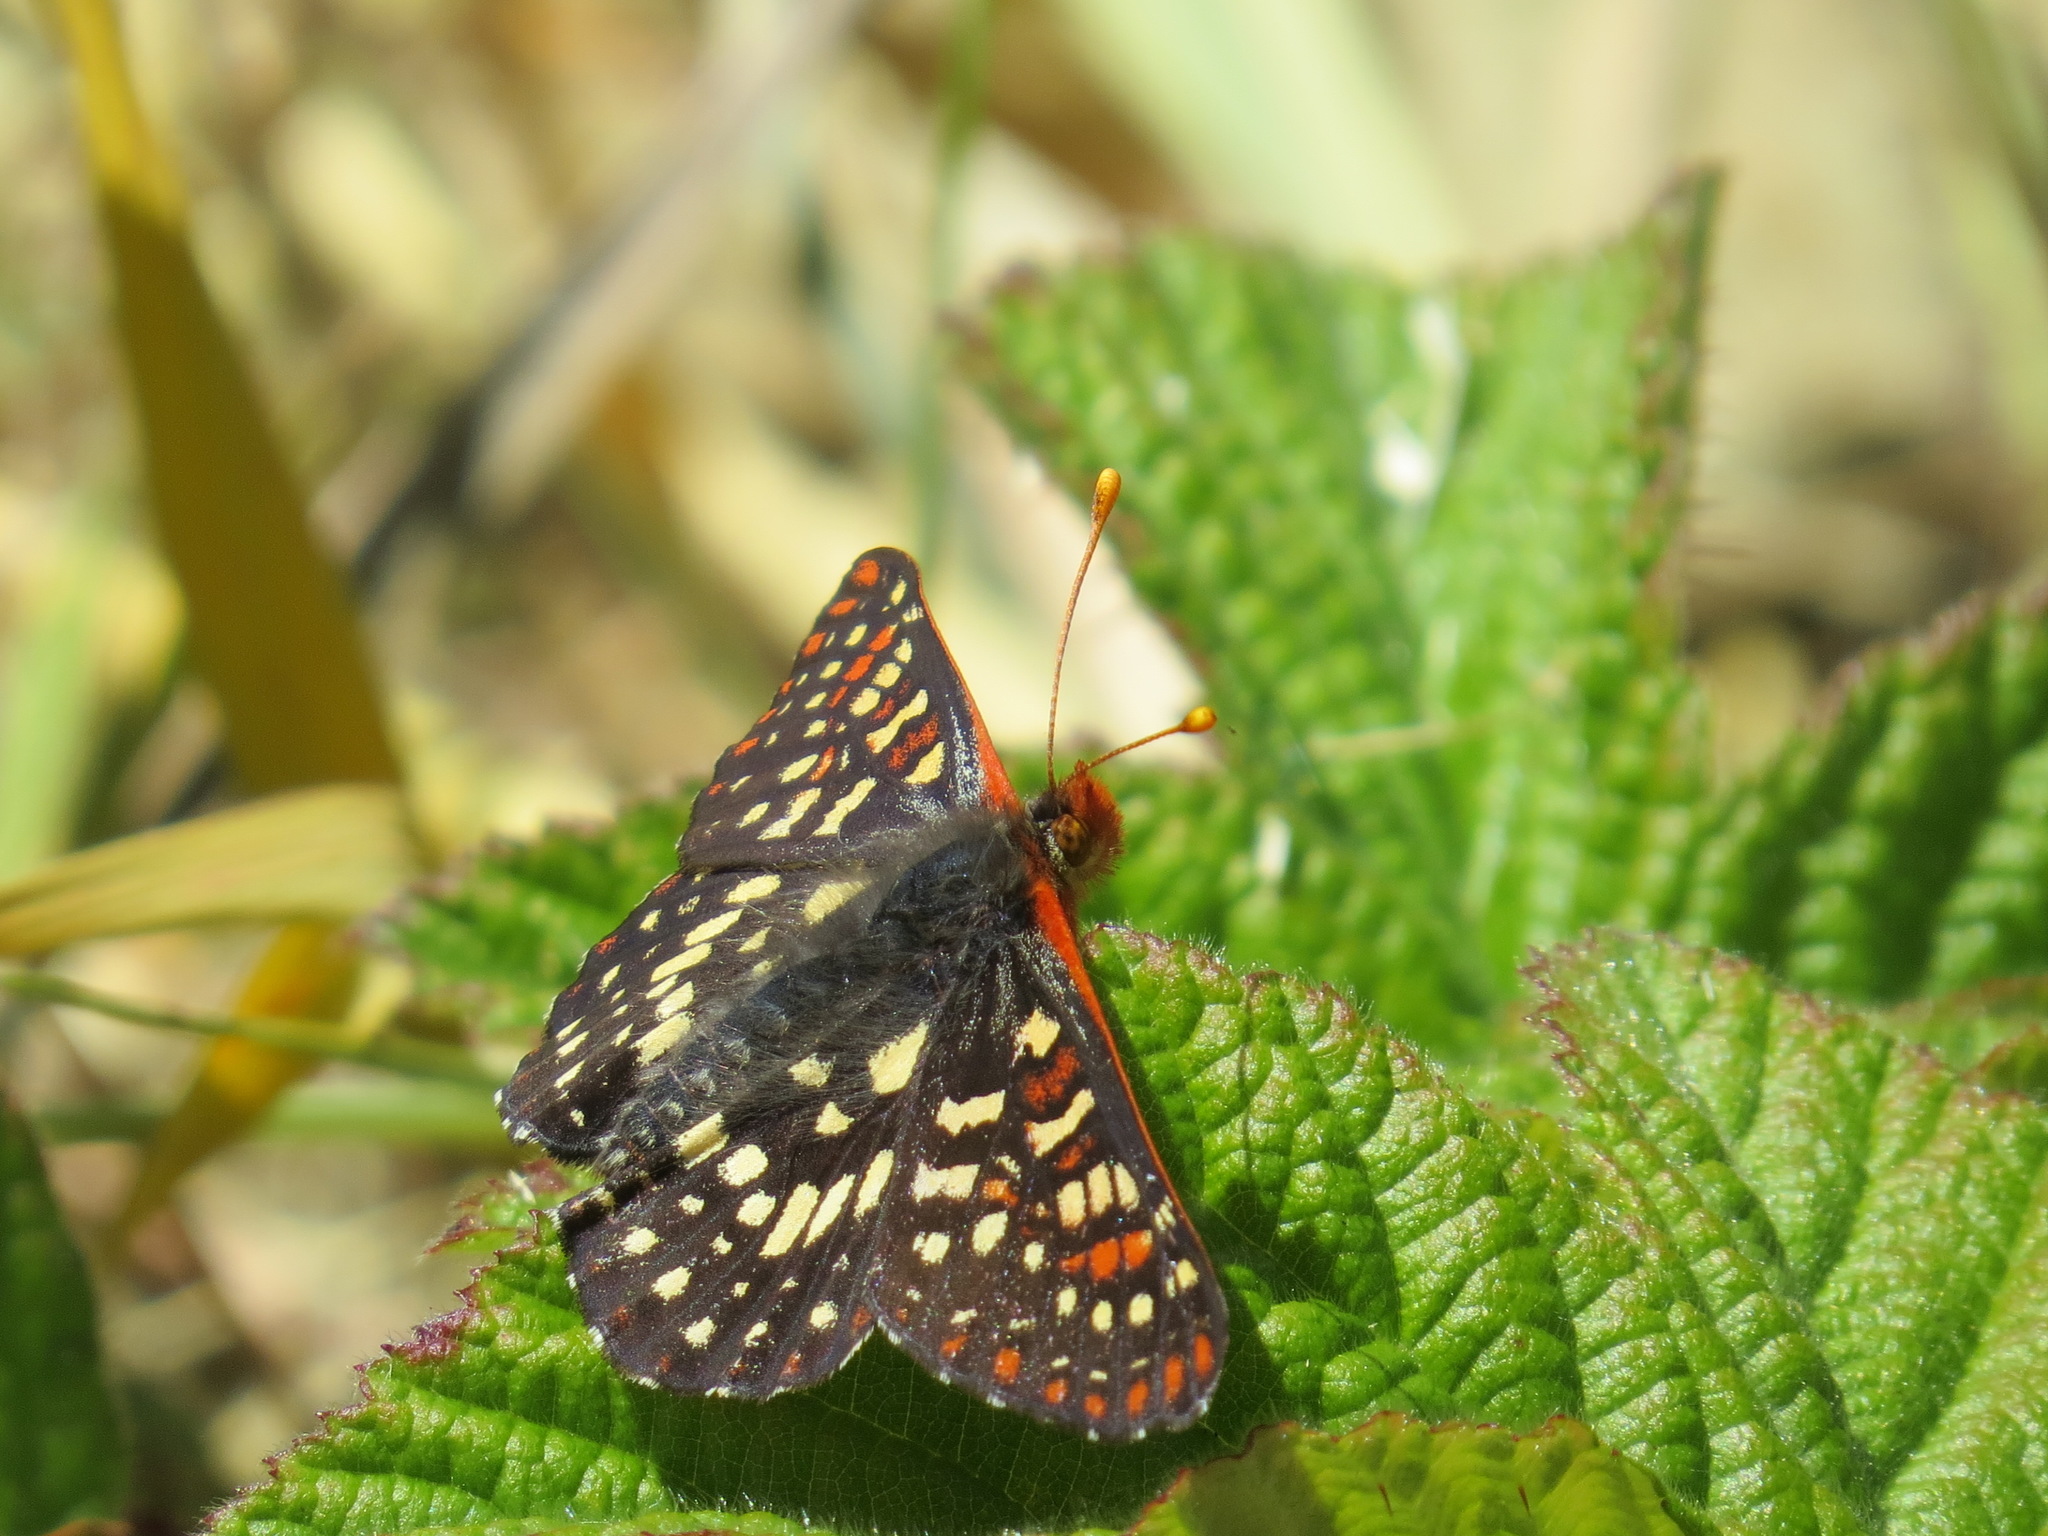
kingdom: Animalia
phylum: Arthropoda
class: Insecta
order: Lepidoptera
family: Nymphalidae
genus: Occidryas
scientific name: Occidryas chalcedona
